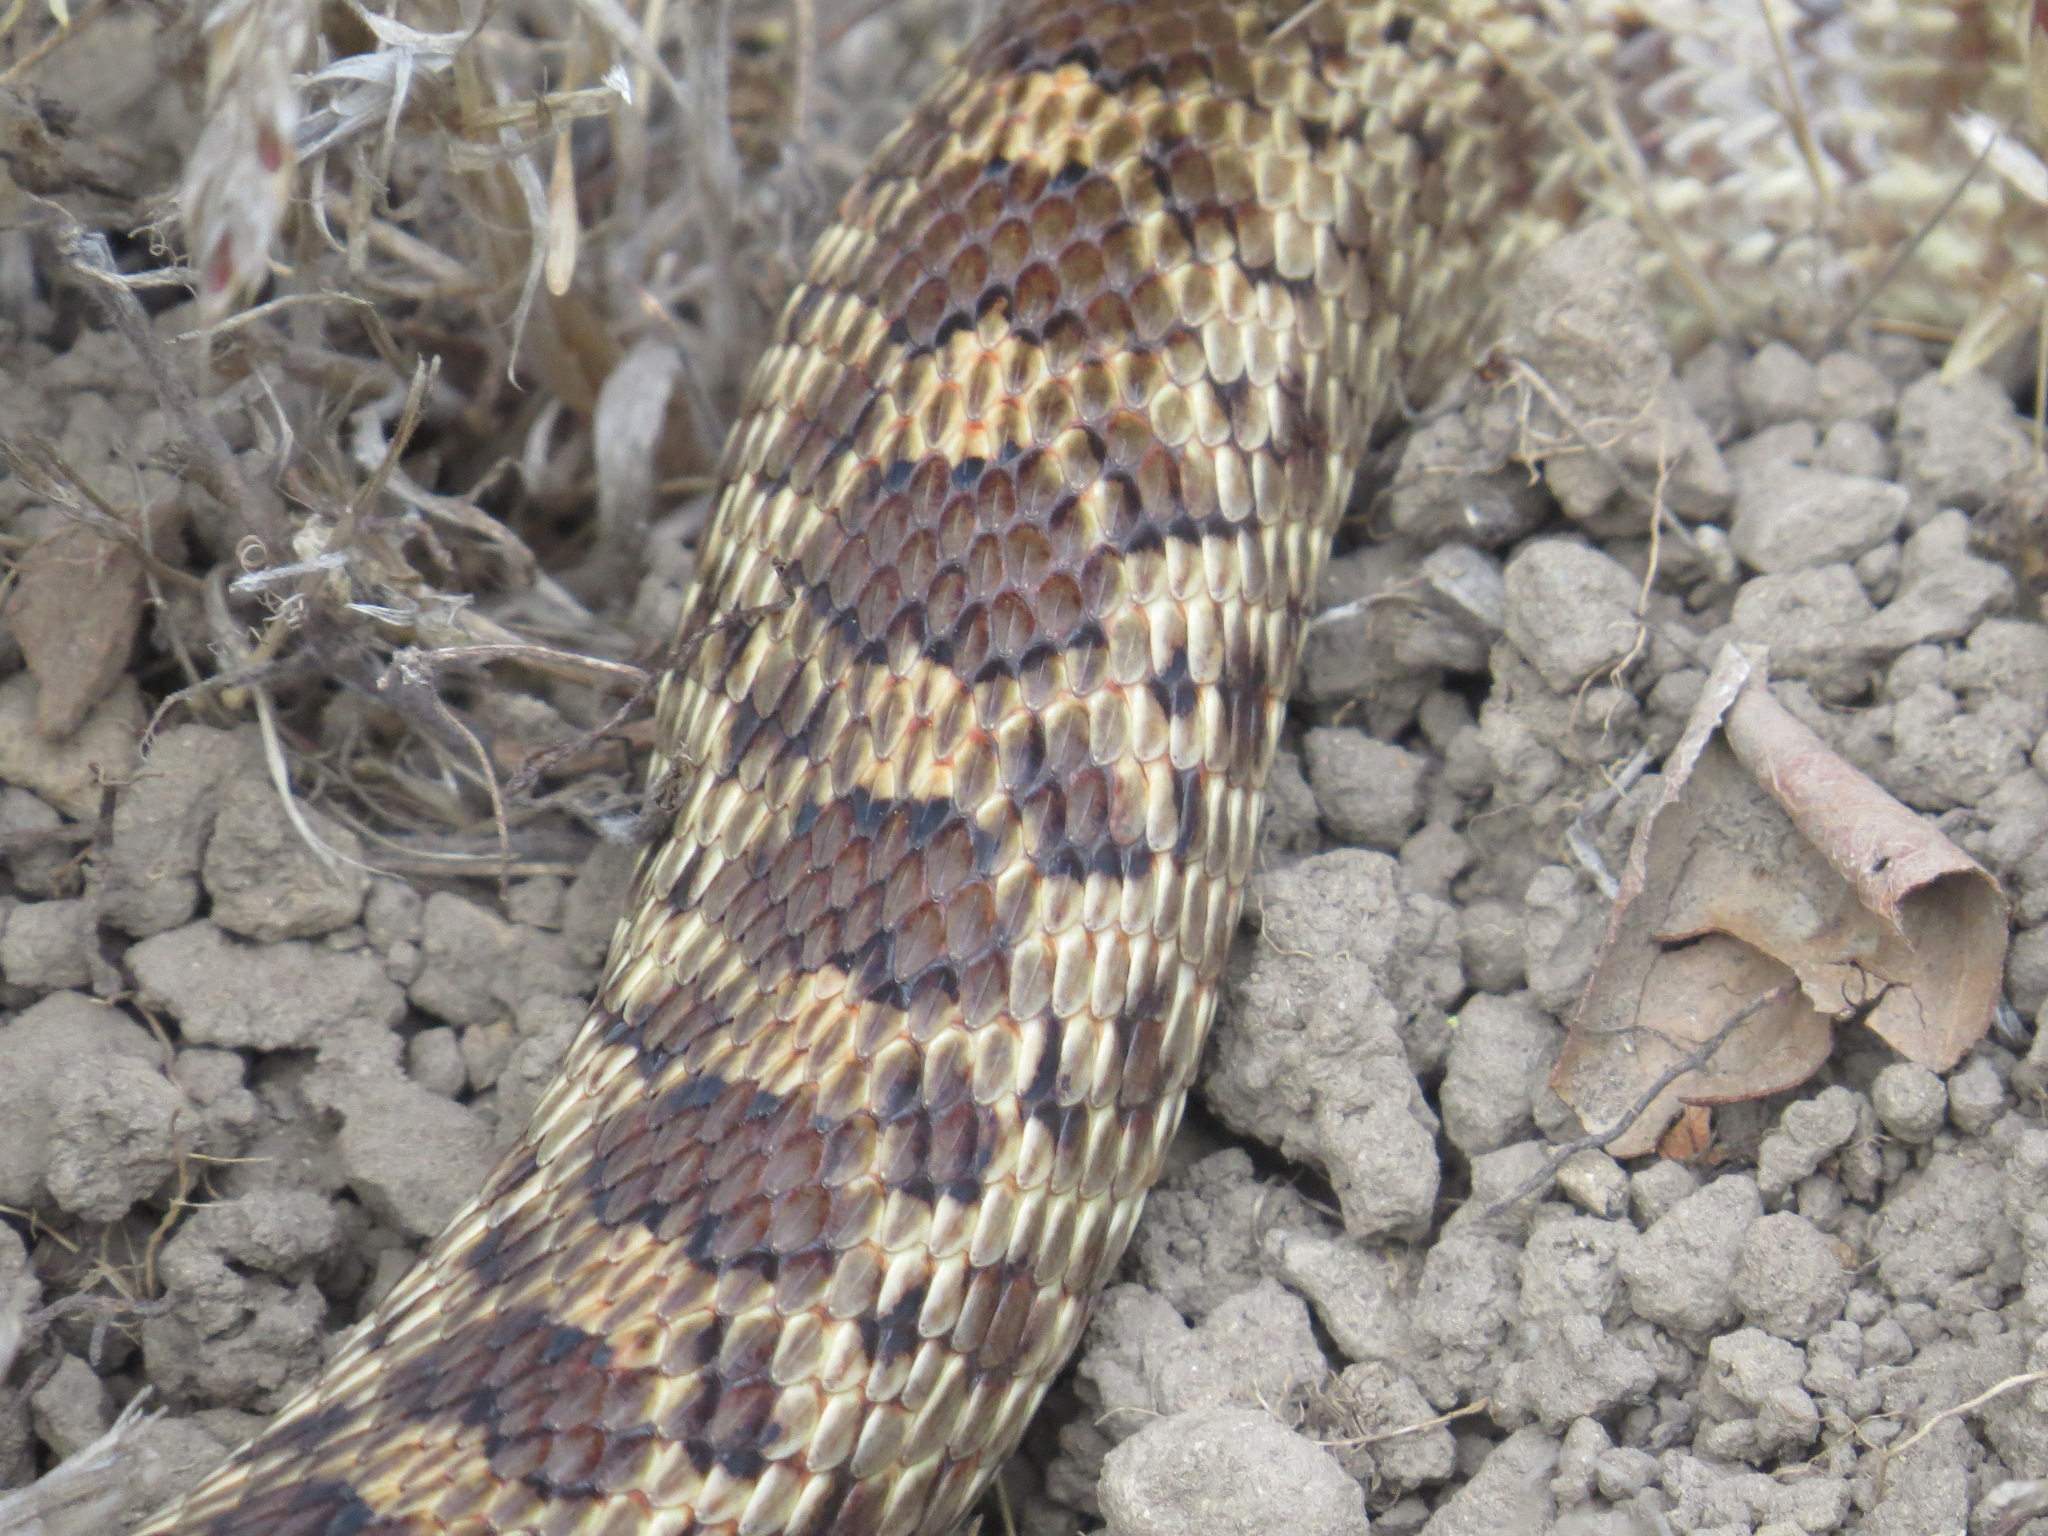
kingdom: Animalia
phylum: Chordata
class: Squamata
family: Colubridae
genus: Pituophis
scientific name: Pituophis catenifer
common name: Gopher snake
